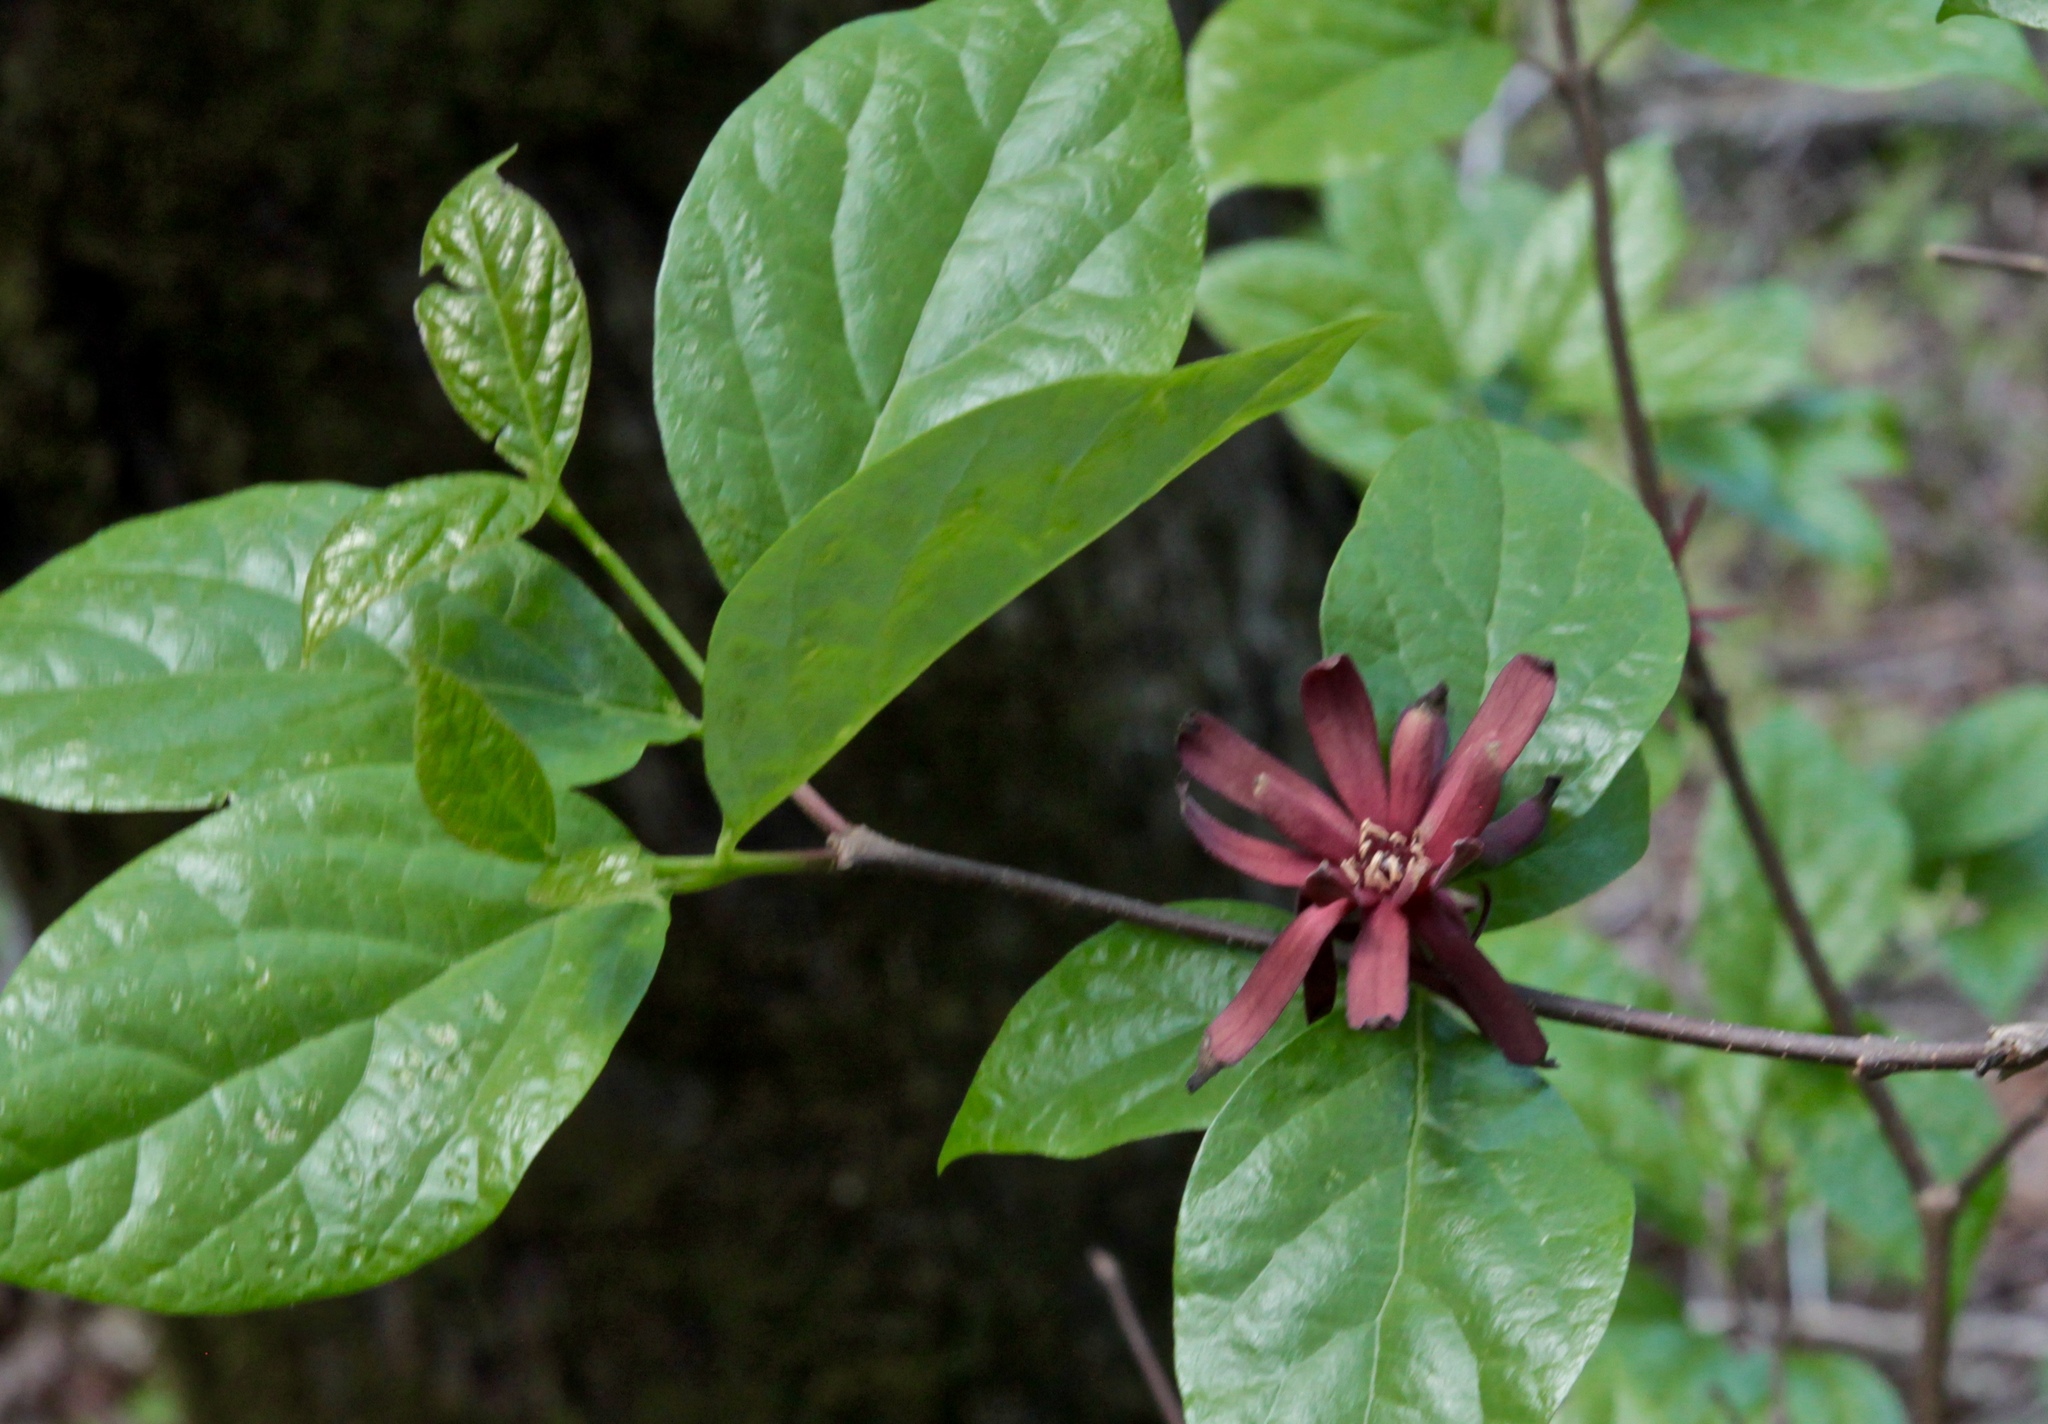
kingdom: Plantae
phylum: Tracheophyta
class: Magnoliopsida
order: Laurales
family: Calycanthaceae
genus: Calycanthus
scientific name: Calycanthus floridus
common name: Carolina-allspice
